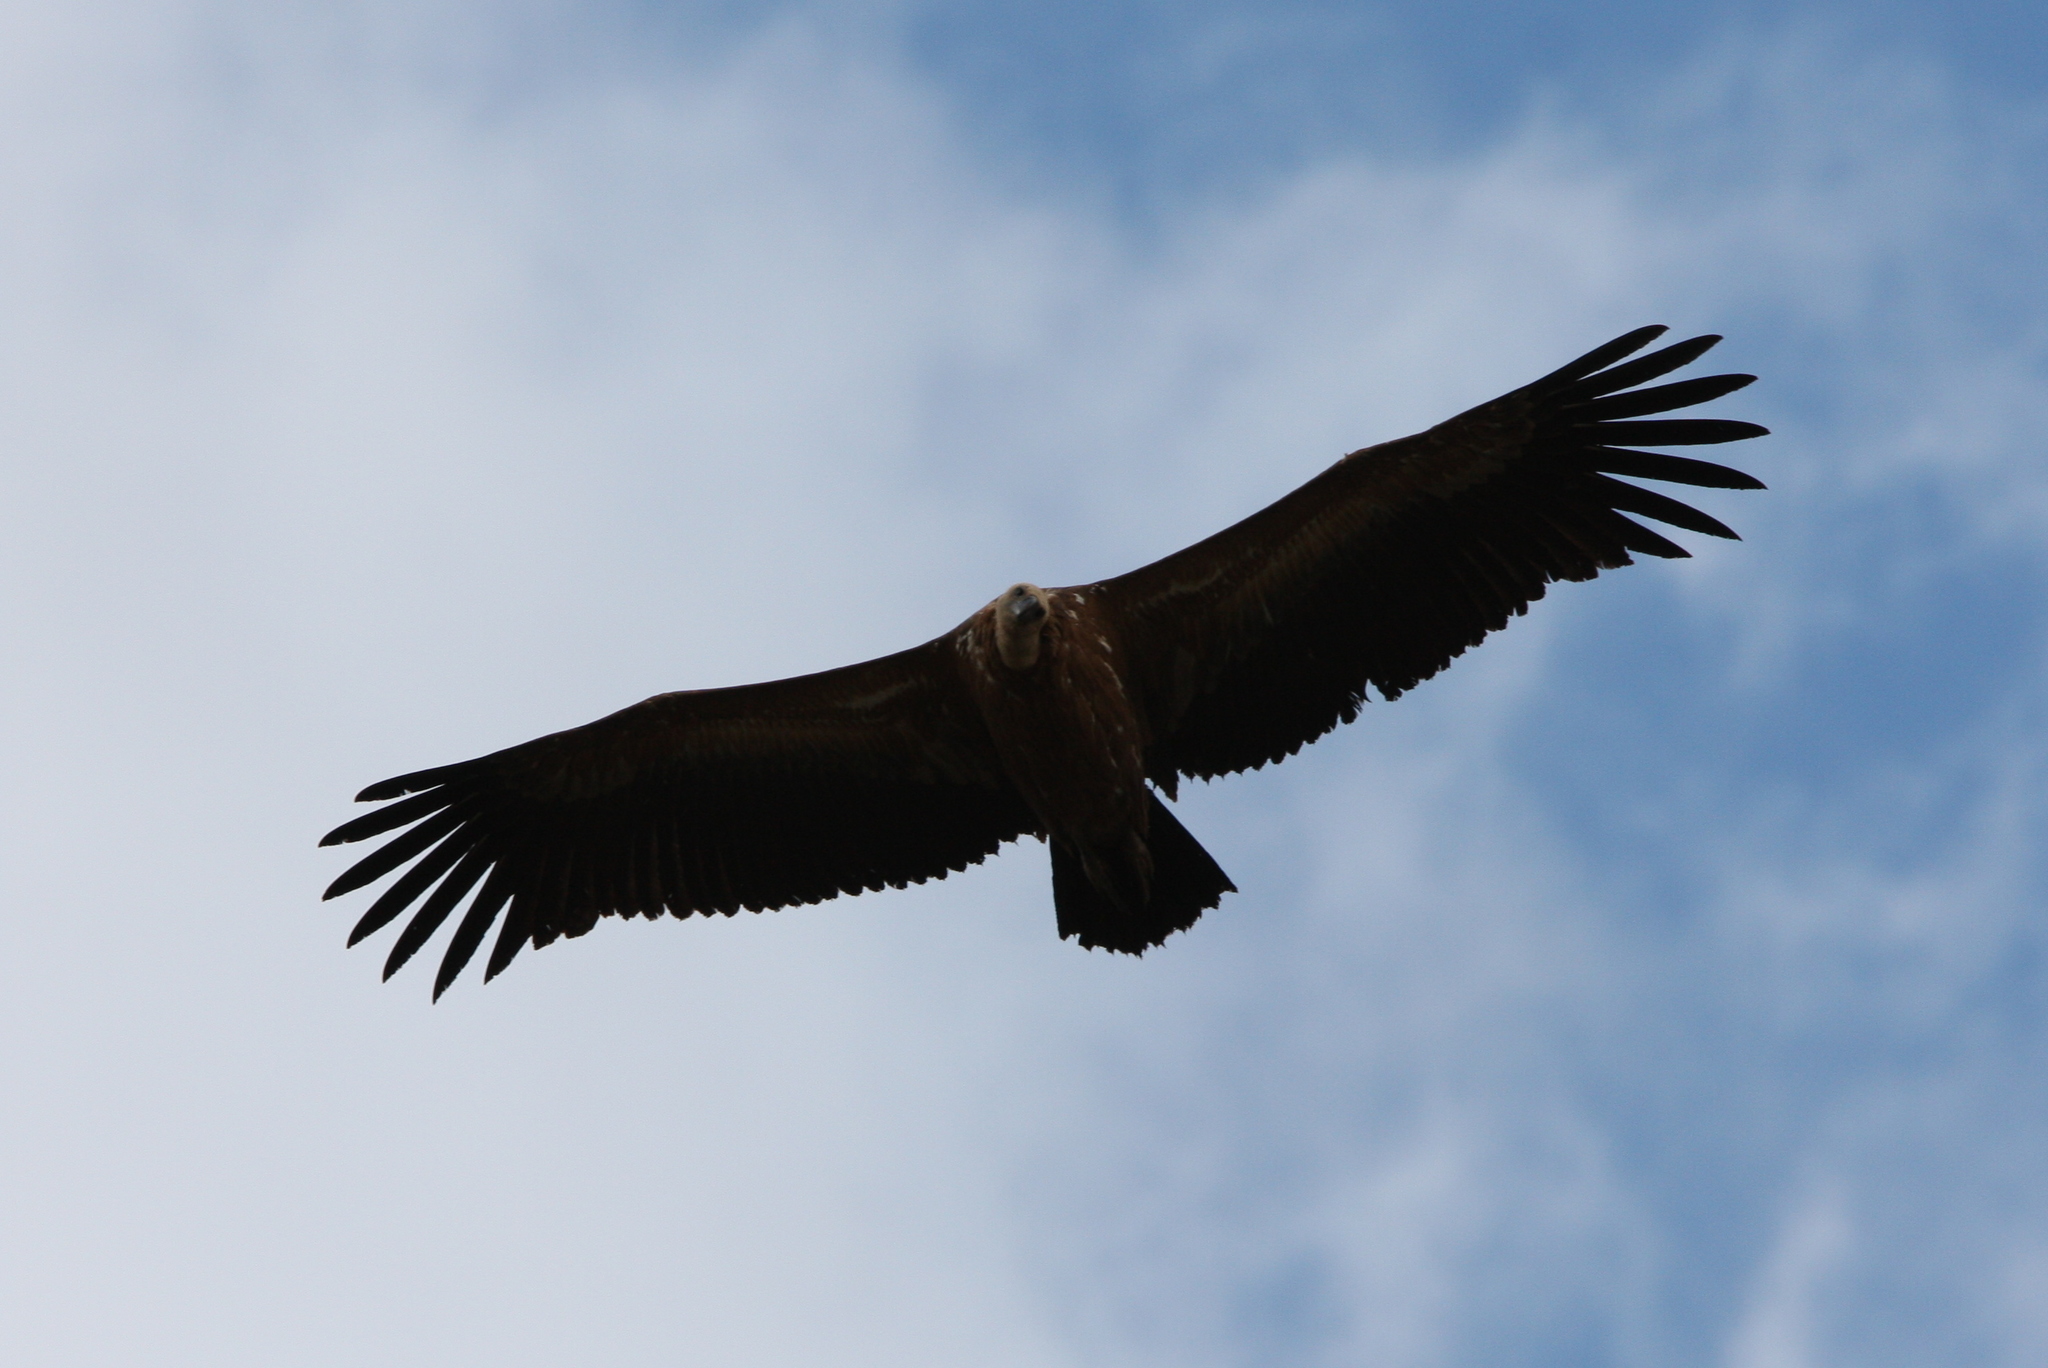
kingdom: Animalia
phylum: Chordata
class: Aves
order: Accipitriformes
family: Accipitridae
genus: Gyps
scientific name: Gyps fulvus
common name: Griffon vulture
